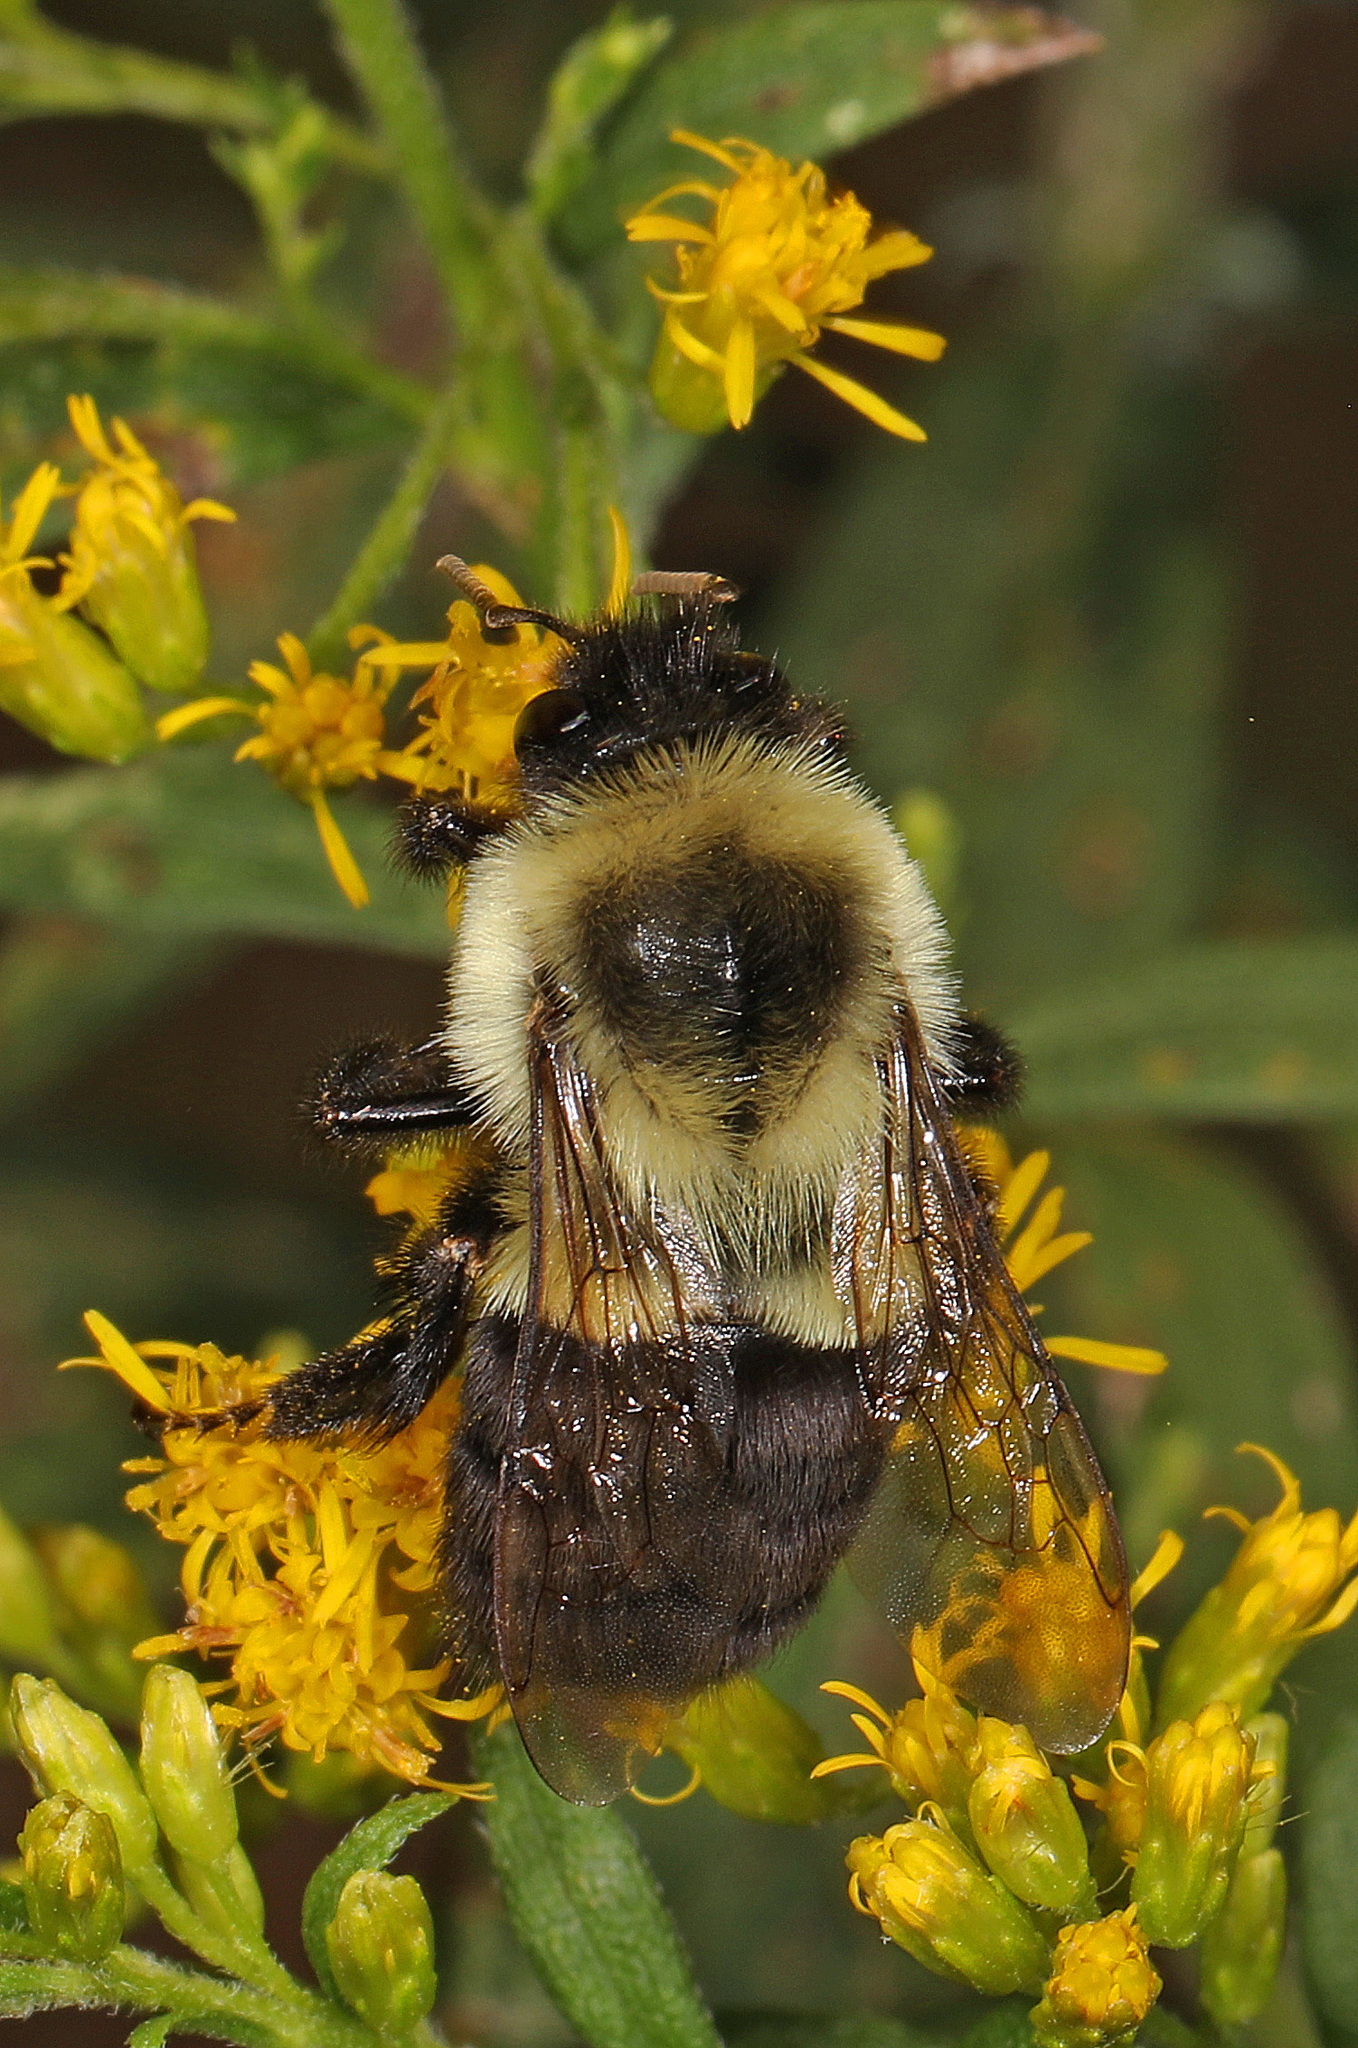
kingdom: Animalia
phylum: Arthropoda
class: Insecta
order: Hymenoptera
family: Apidae
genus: Bombus
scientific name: Bombus impatiens
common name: Common eastern bumble bee
